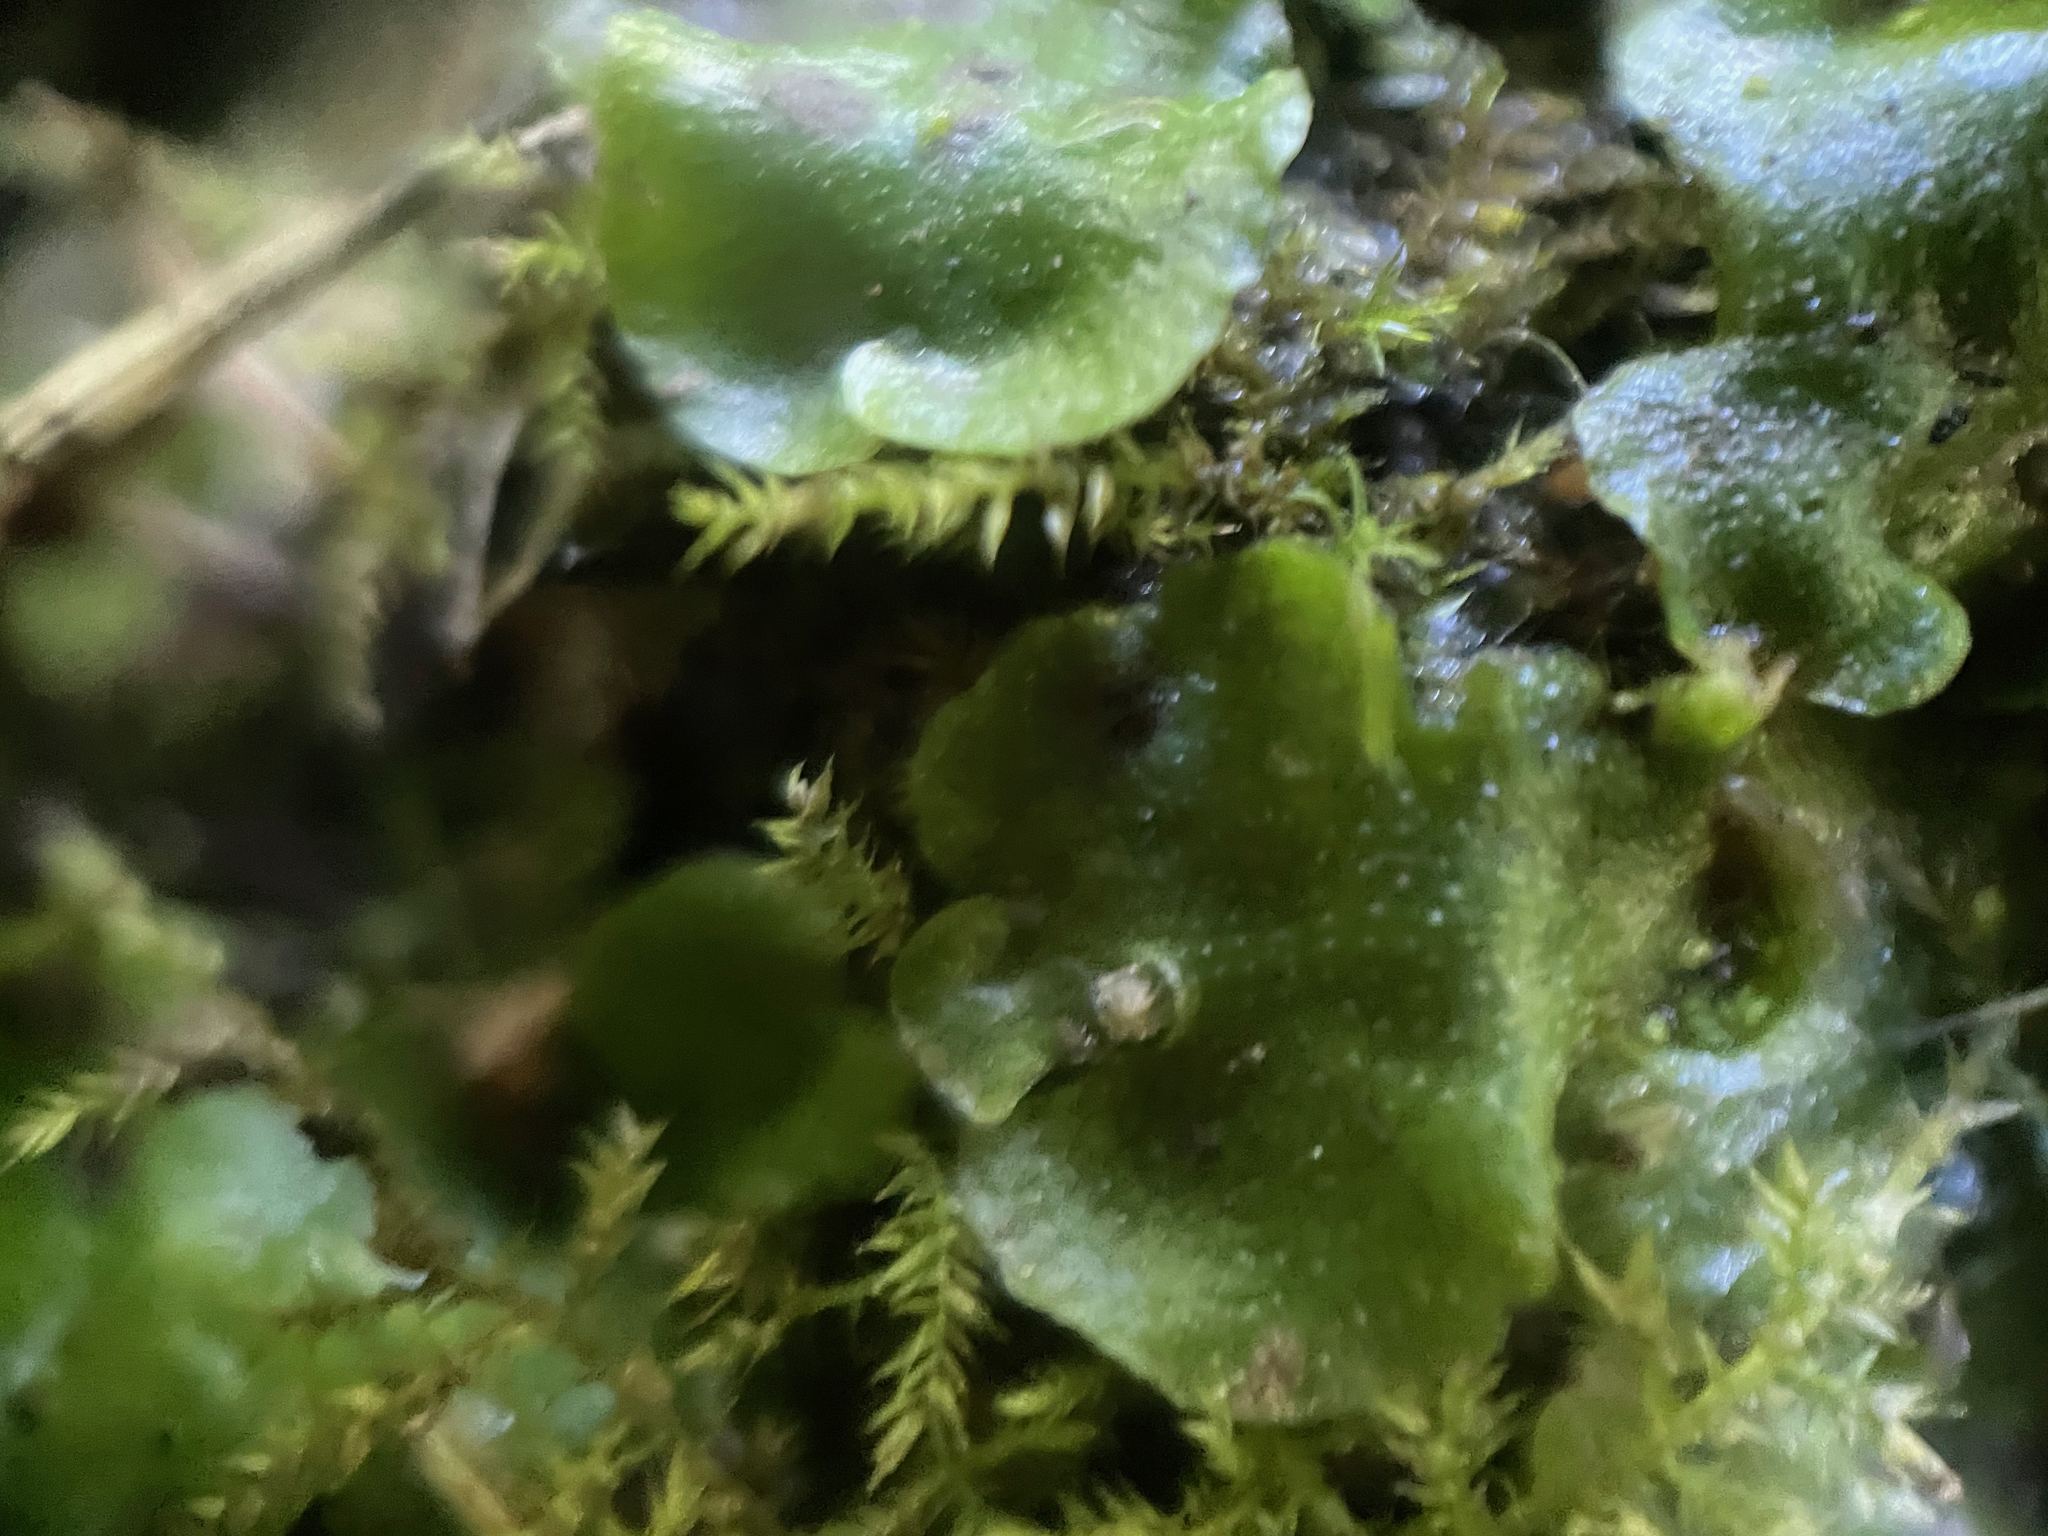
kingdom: Plantae
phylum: Marchantiophyta
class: Marchantiopsida
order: Lunulariales
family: Lunulariaceae
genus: Lunularia
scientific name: Lunularia cruciata
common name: Crescent-cup liverwort
